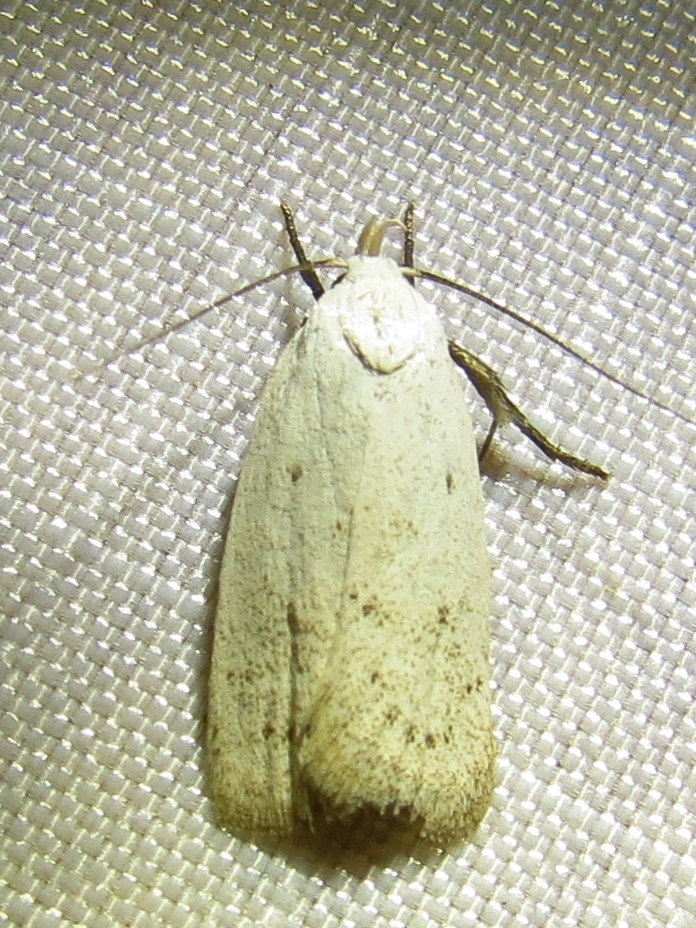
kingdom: Animalia
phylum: Arthropoda
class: Insecta
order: Lepidoptera
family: Oecophoridae
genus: Inga
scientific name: Inga cretacea
